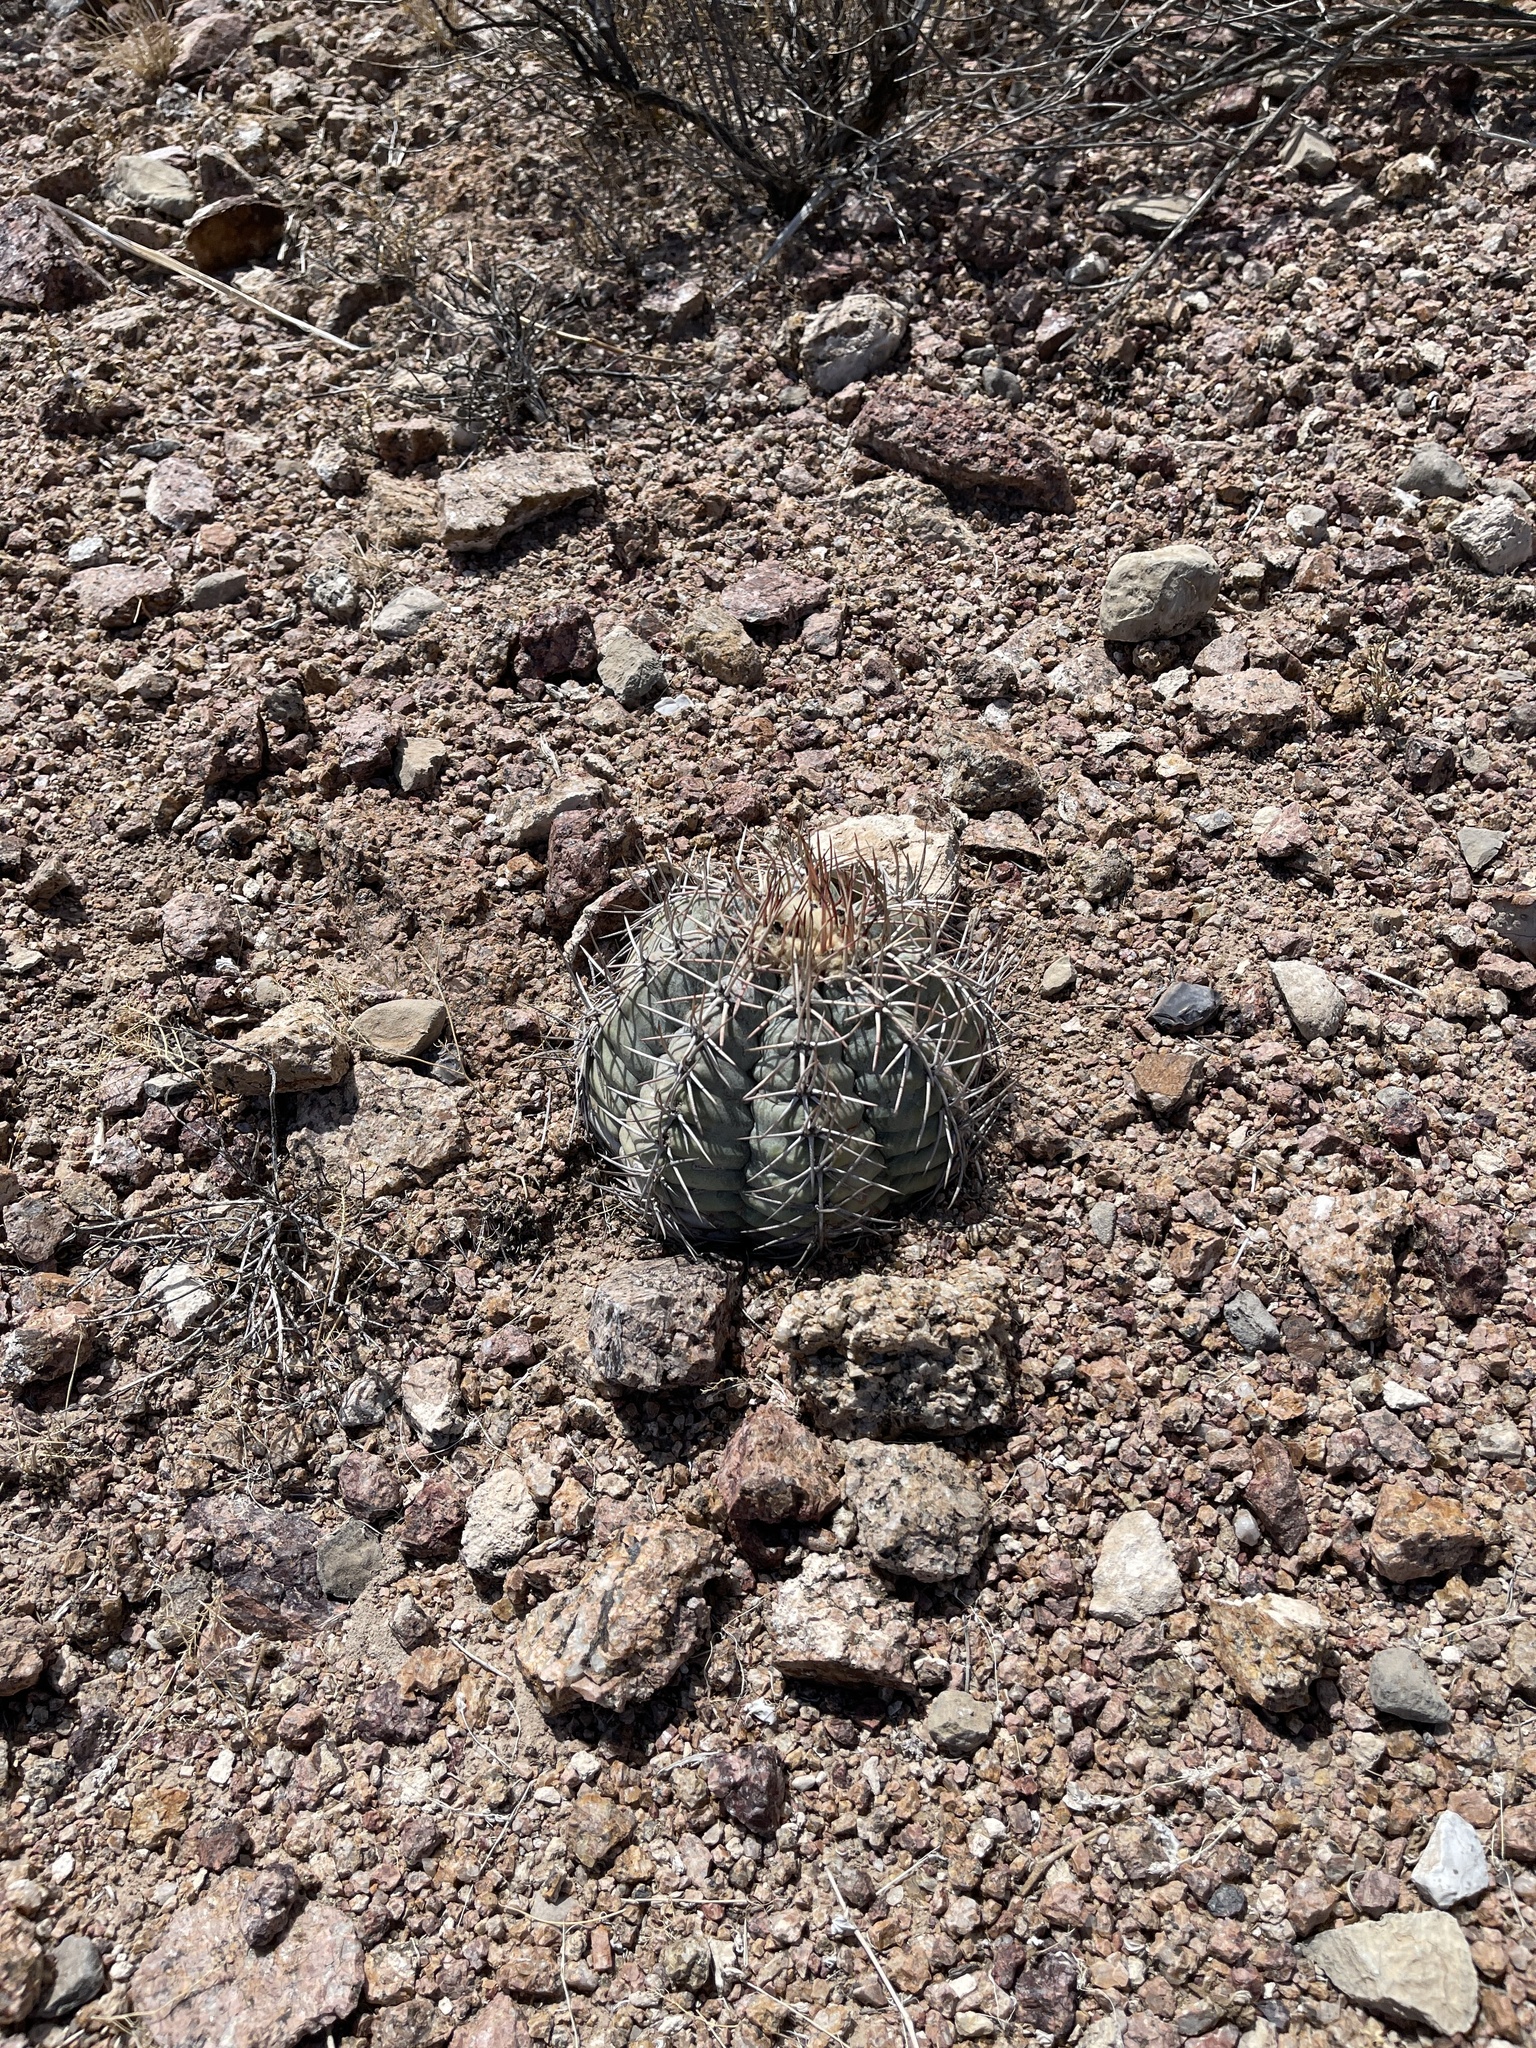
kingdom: Plantae
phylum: Tracheophyta
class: Magnoliopsida
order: Caryophyllales
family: Cactaceae
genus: Echinocactus
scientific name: Echinocactus horizonthalonius
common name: Devilshead
